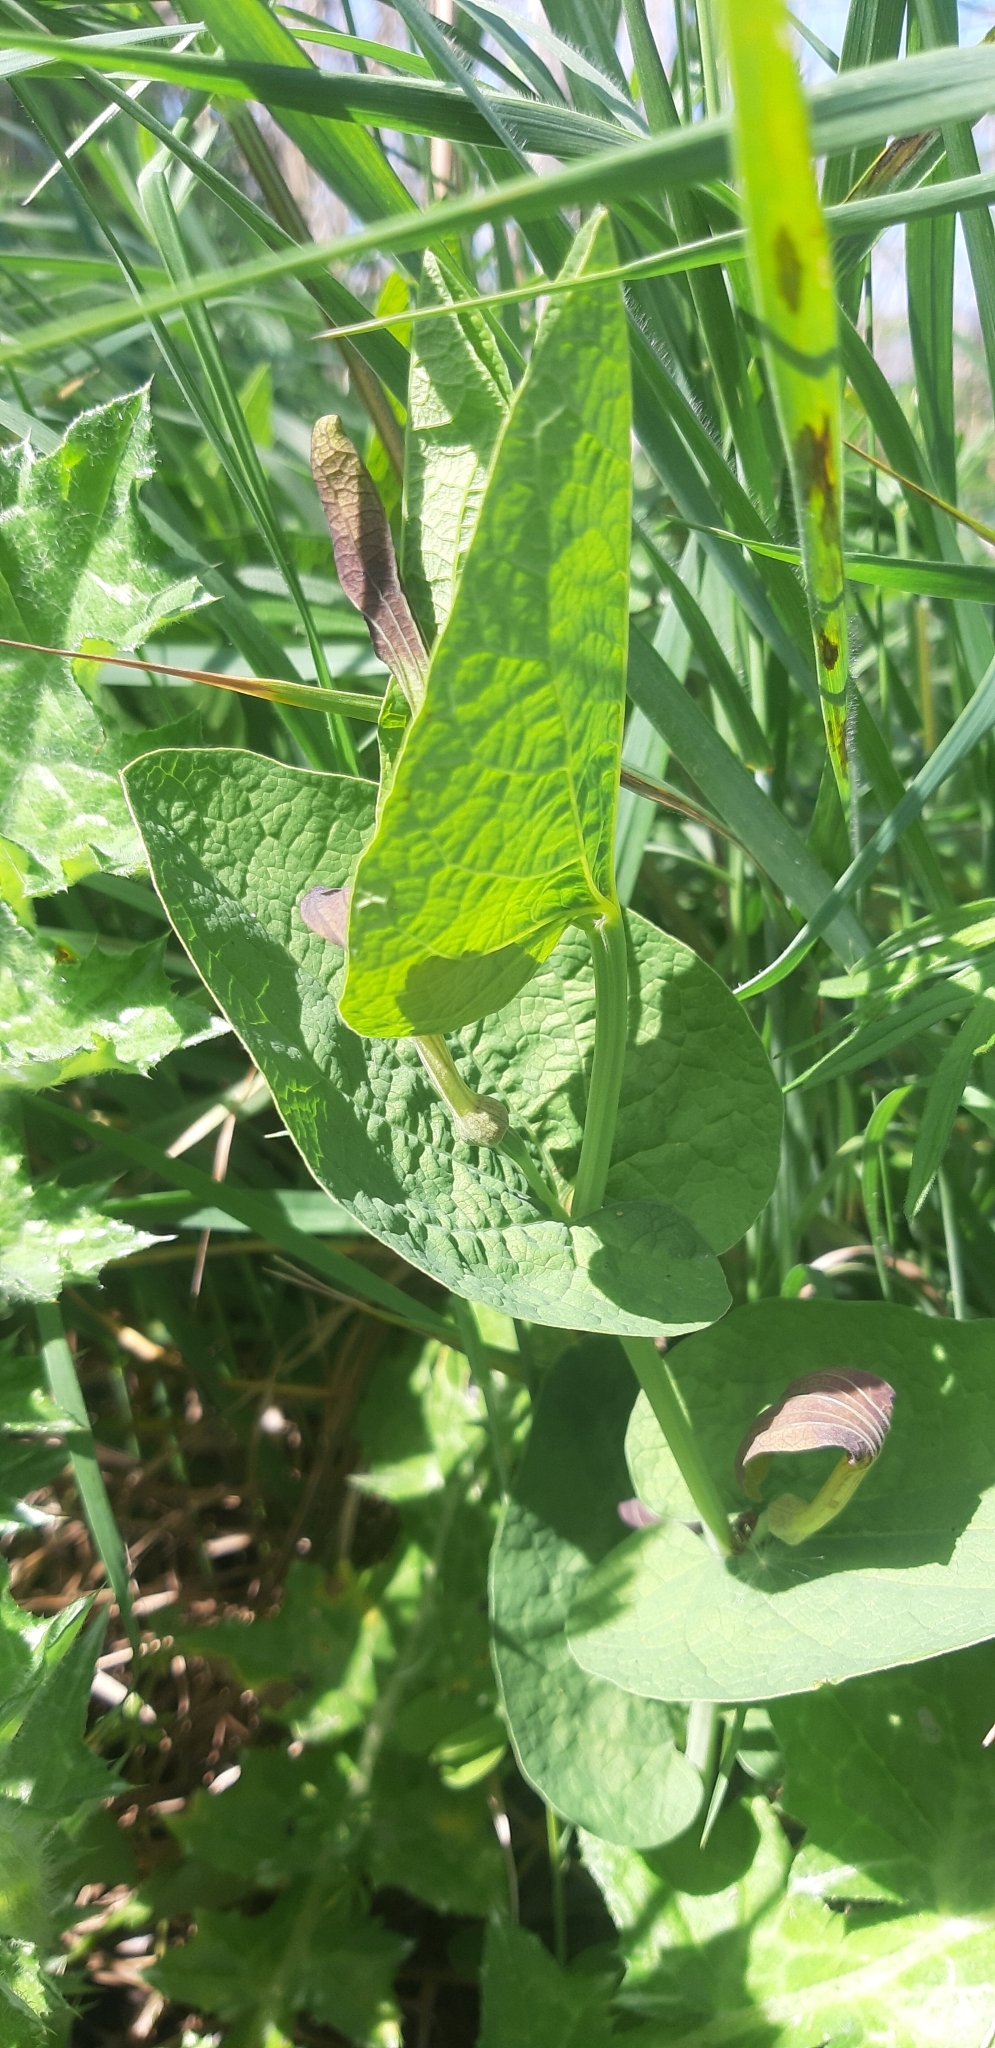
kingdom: Plantae
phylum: Tracheophyta
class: Magnoliopsida
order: Piperales
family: Aristolochiaceae
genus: Aristolochia
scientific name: Aristolochia rotunda
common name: Smearwort
